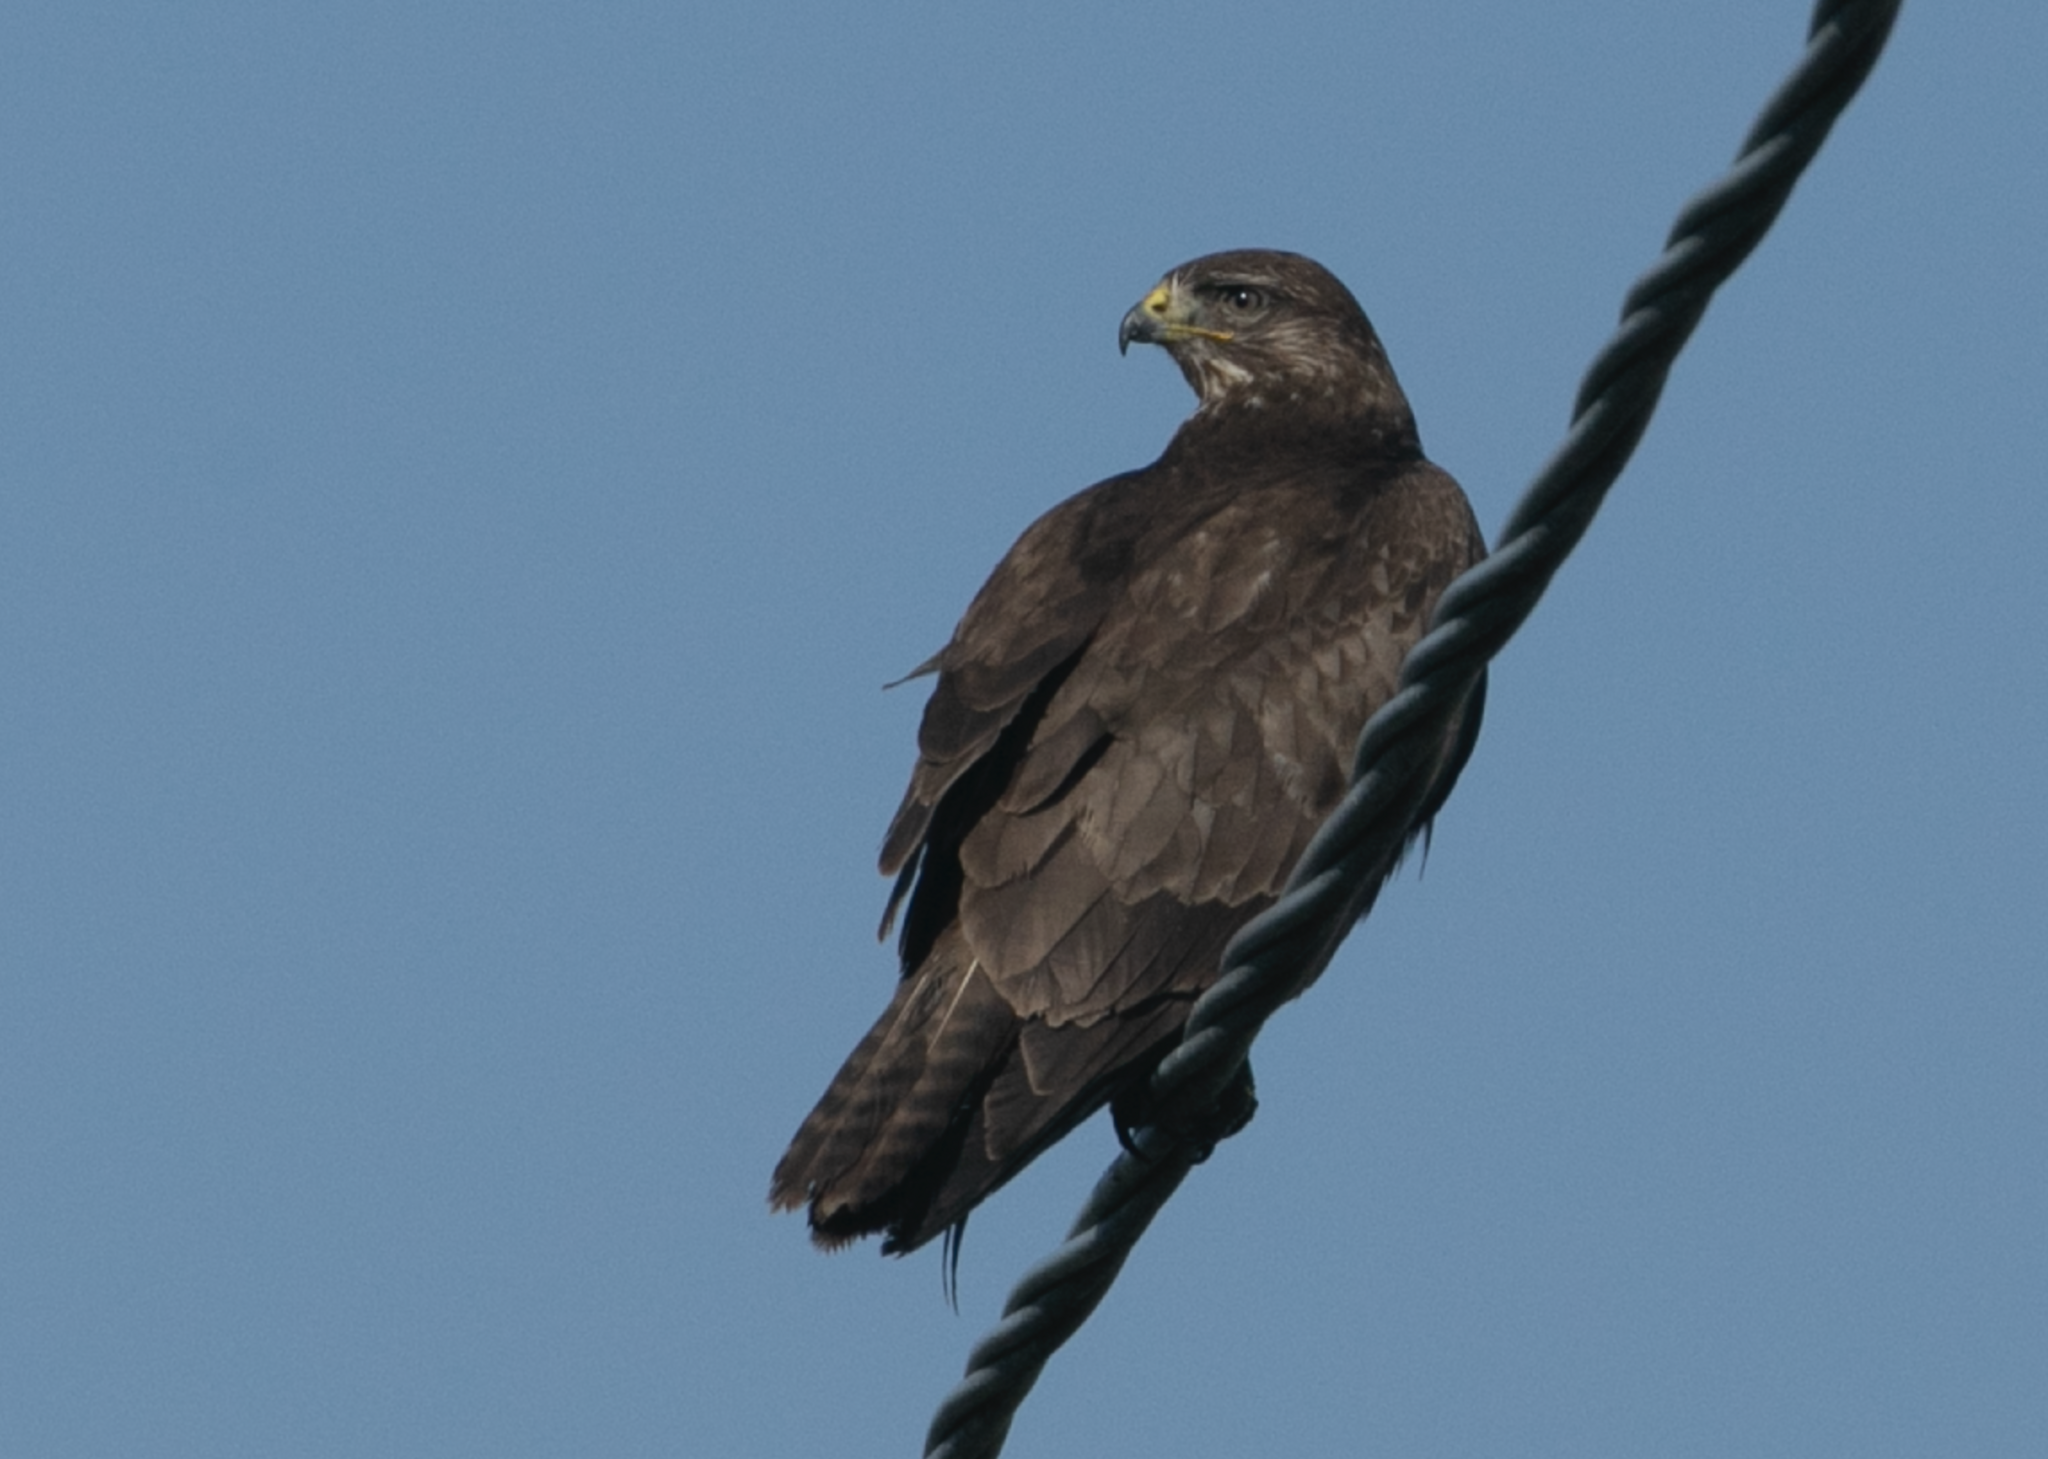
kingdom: Animalia
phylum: Chordata
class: Aves
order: Accipitriformes
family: Accipitridae
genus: Buteo
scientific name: Buteo buteo
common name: Common buzzard
